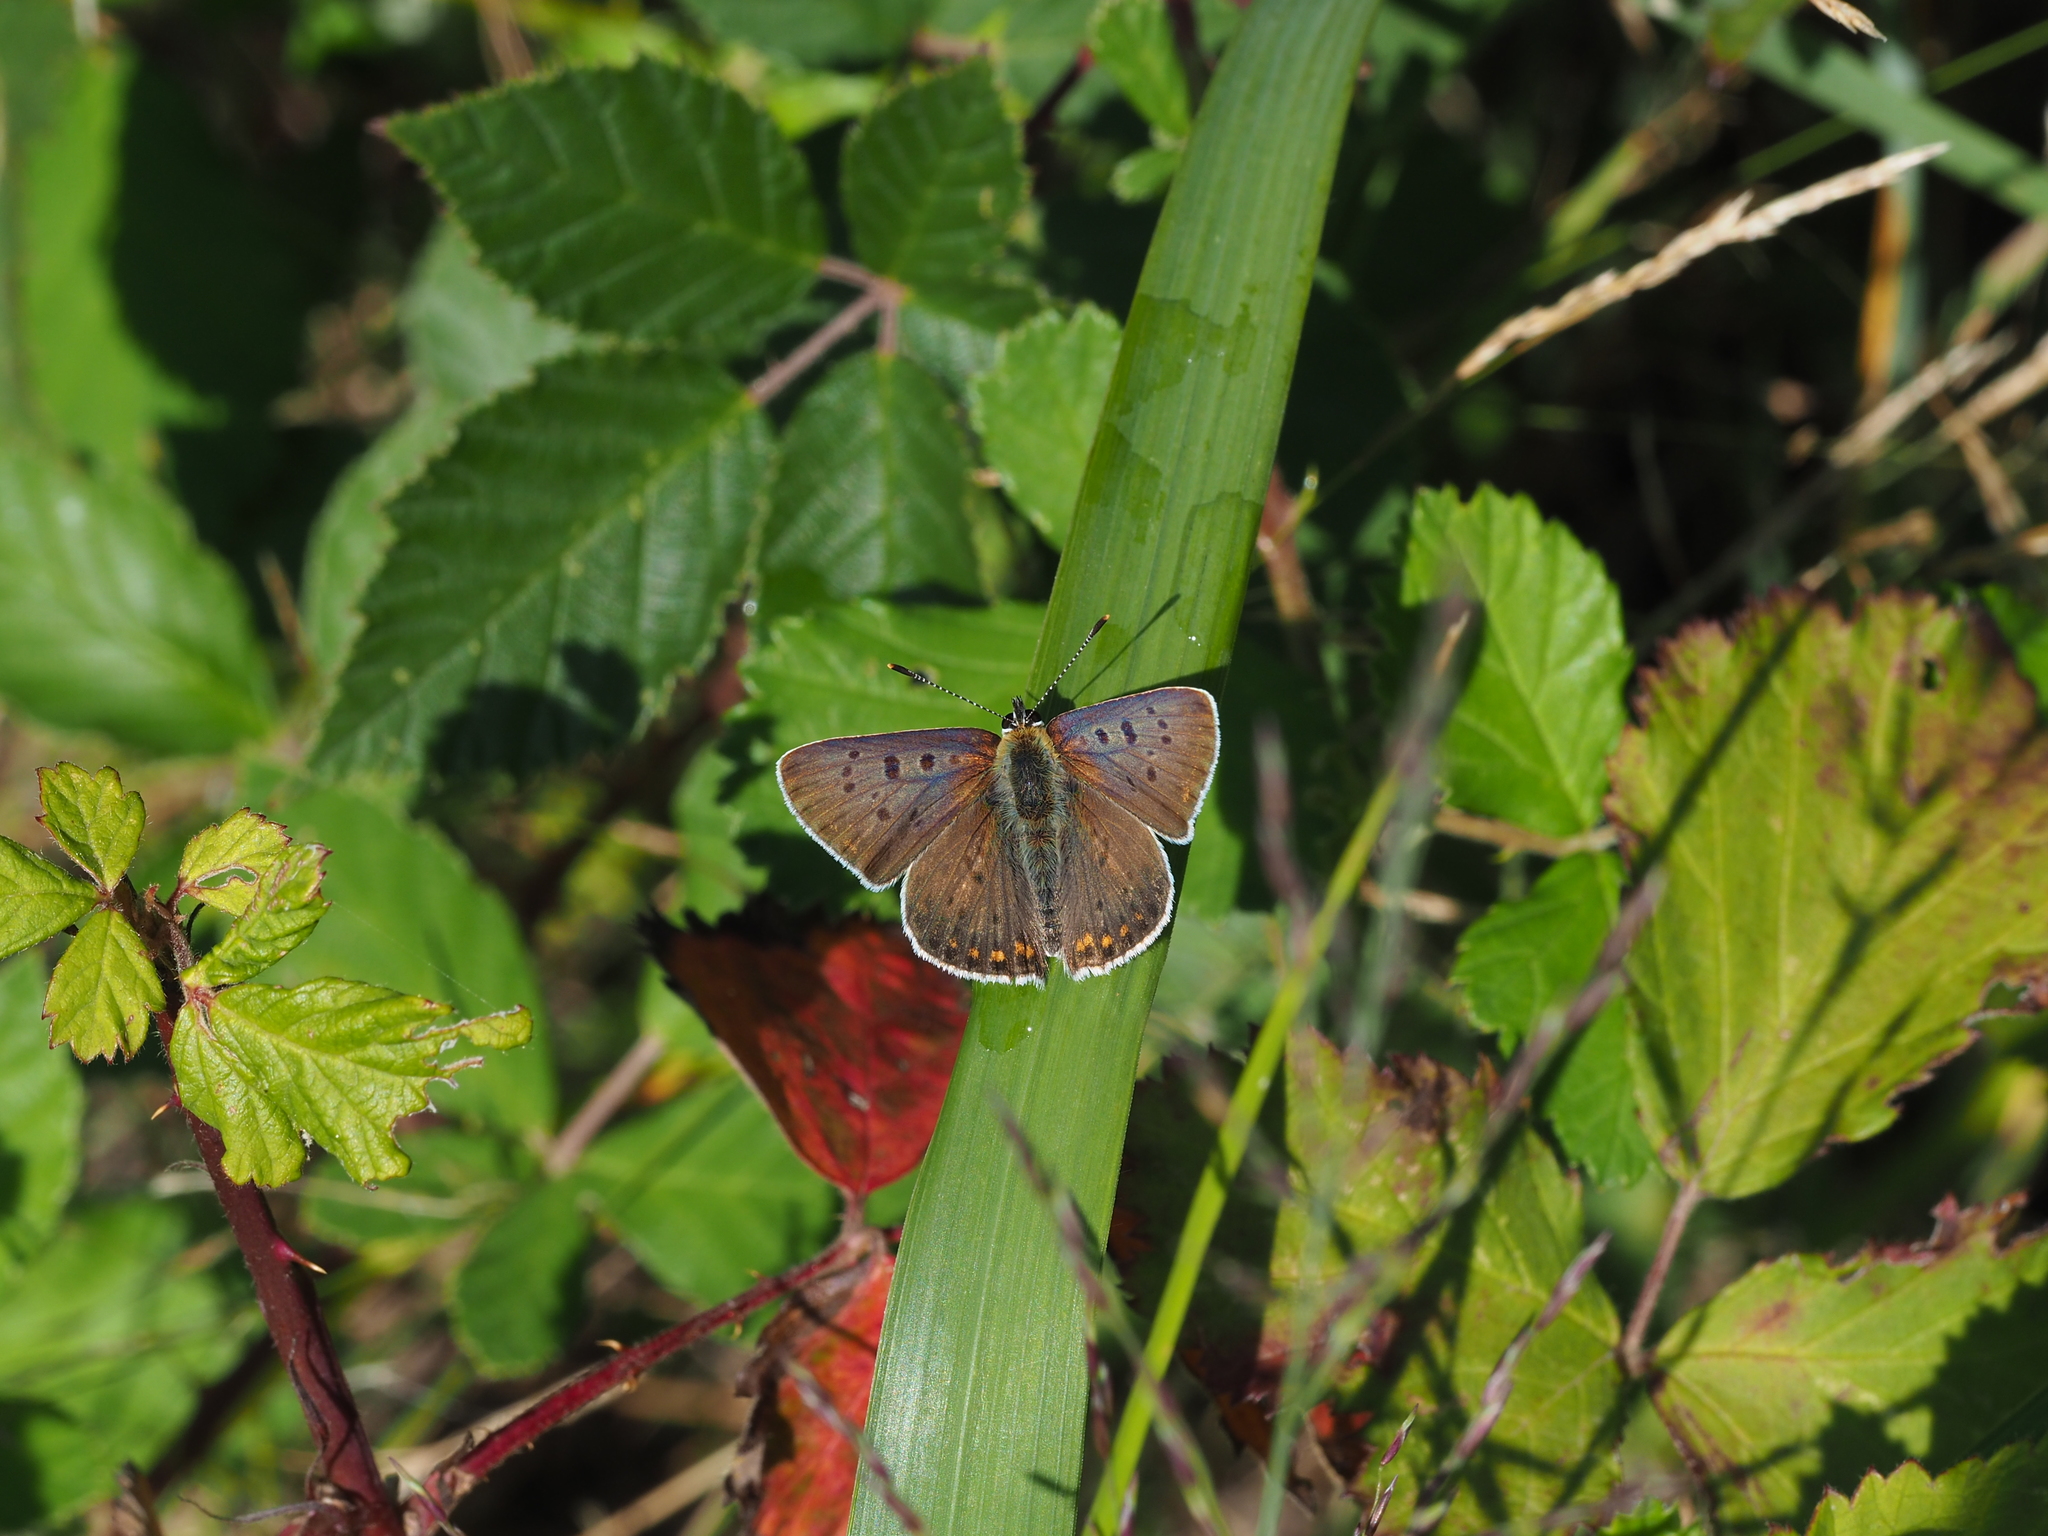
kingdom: Animalia
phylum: Arthropoda
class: Insecta
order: Lepidoptera
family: Lycaenidae
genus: Loweia
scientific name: Loweia tityrus
